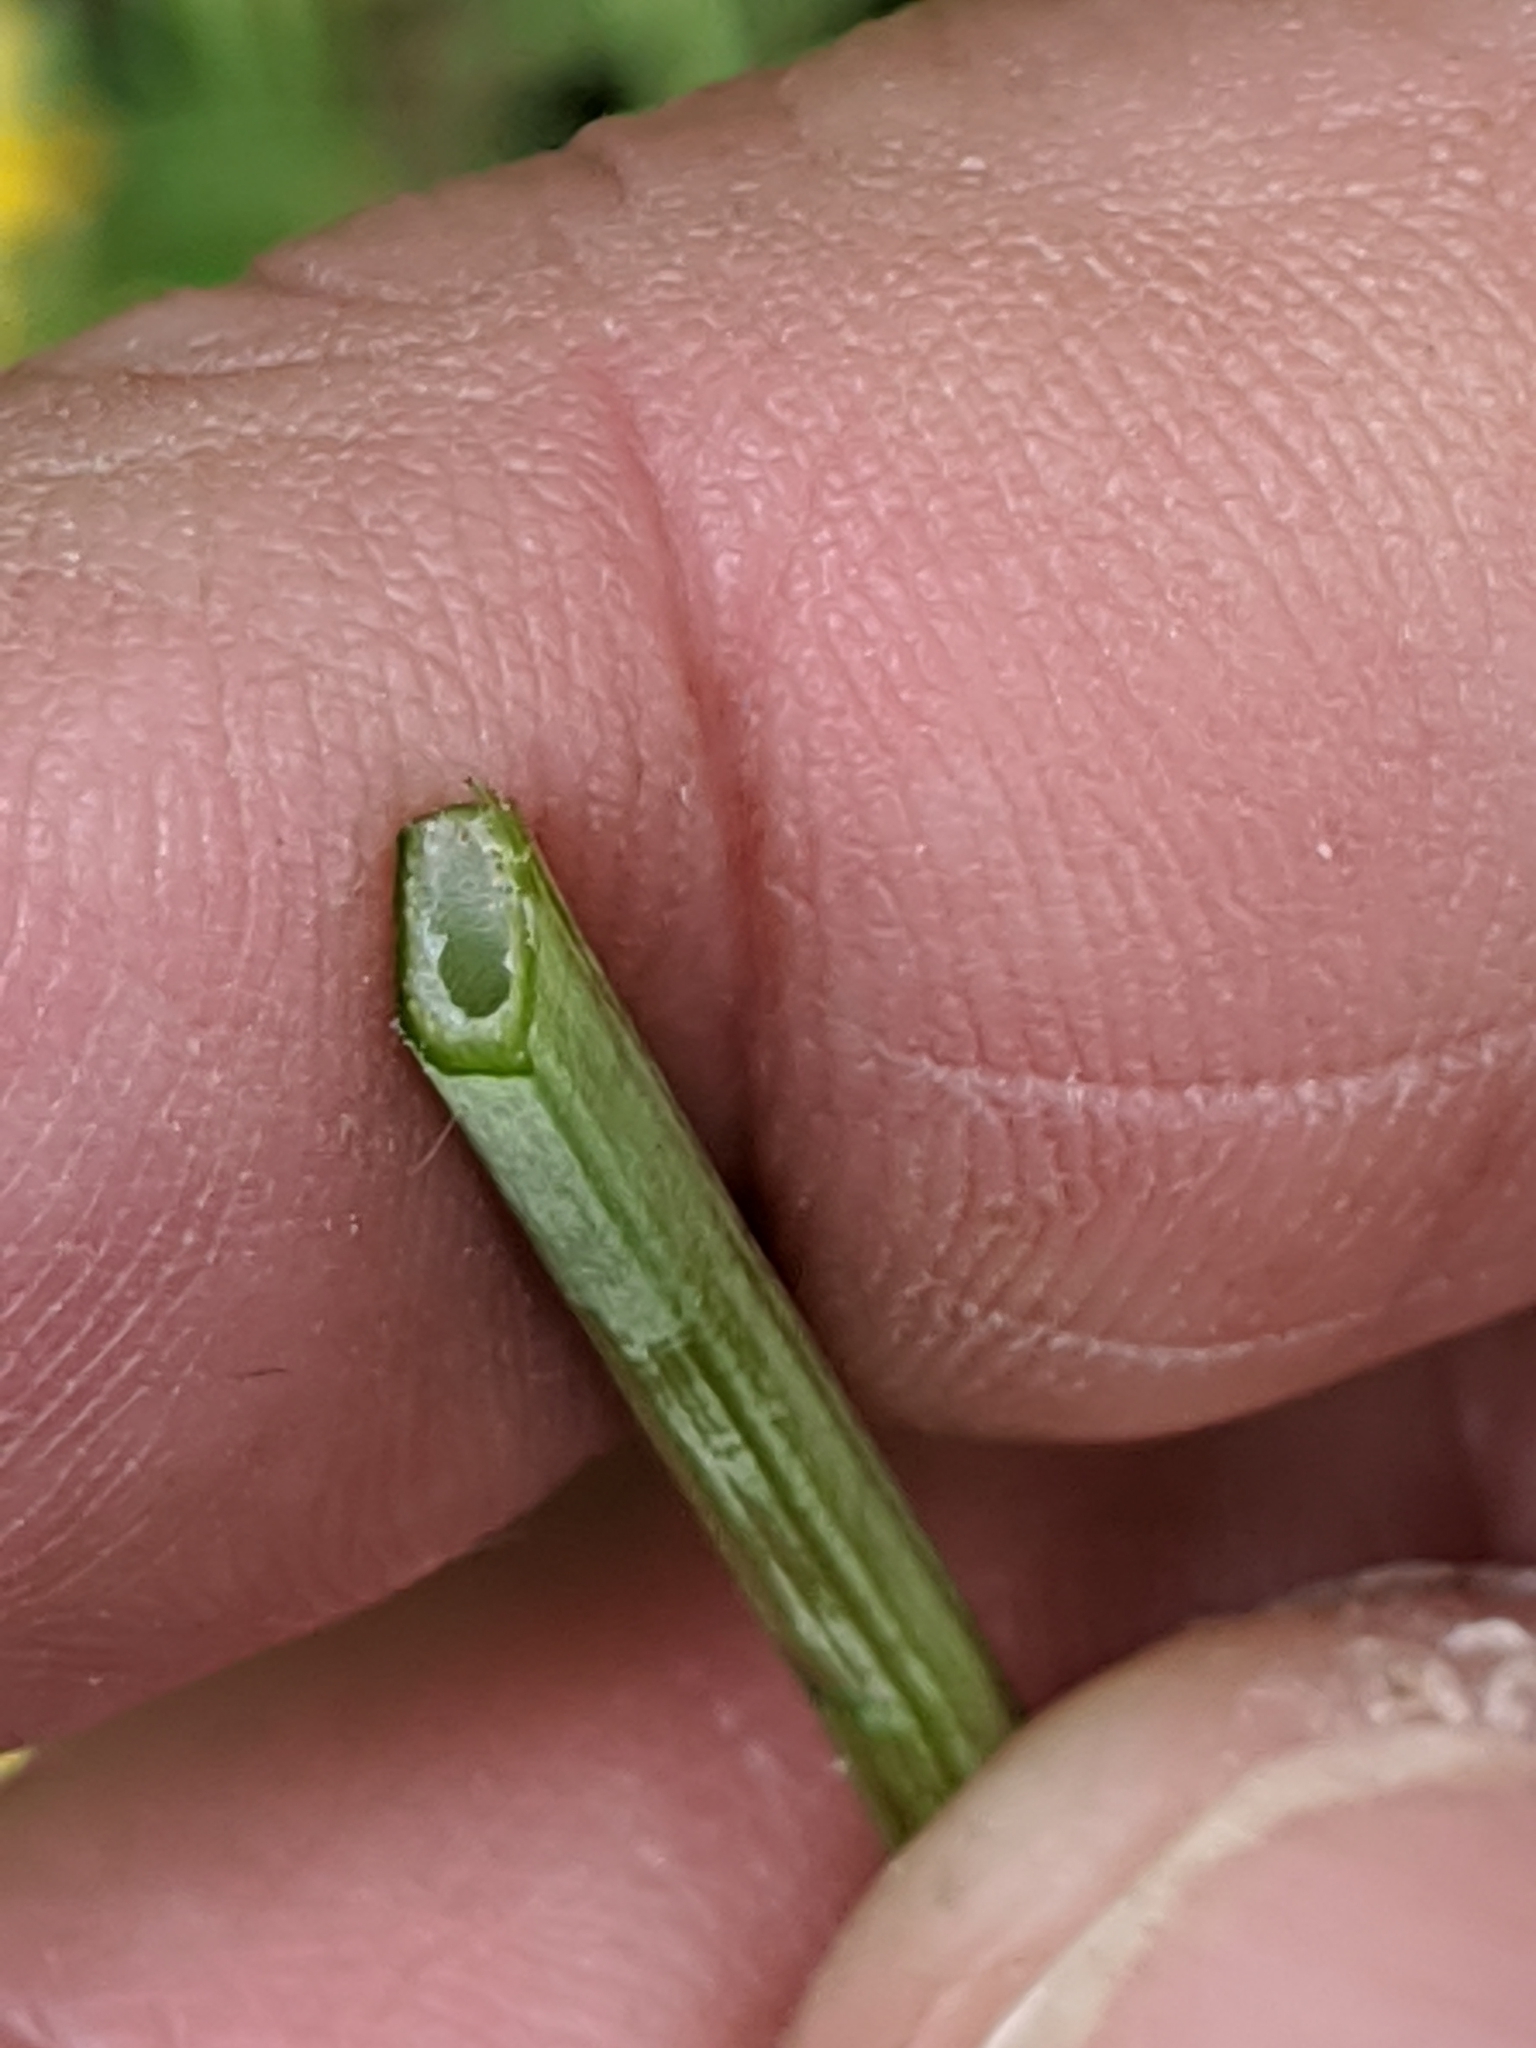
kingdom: Plantae
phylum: Tracheophyta
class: Magnoliopsida
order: Fabales
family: Fabaceae
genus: Lotus
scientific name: Lotus
